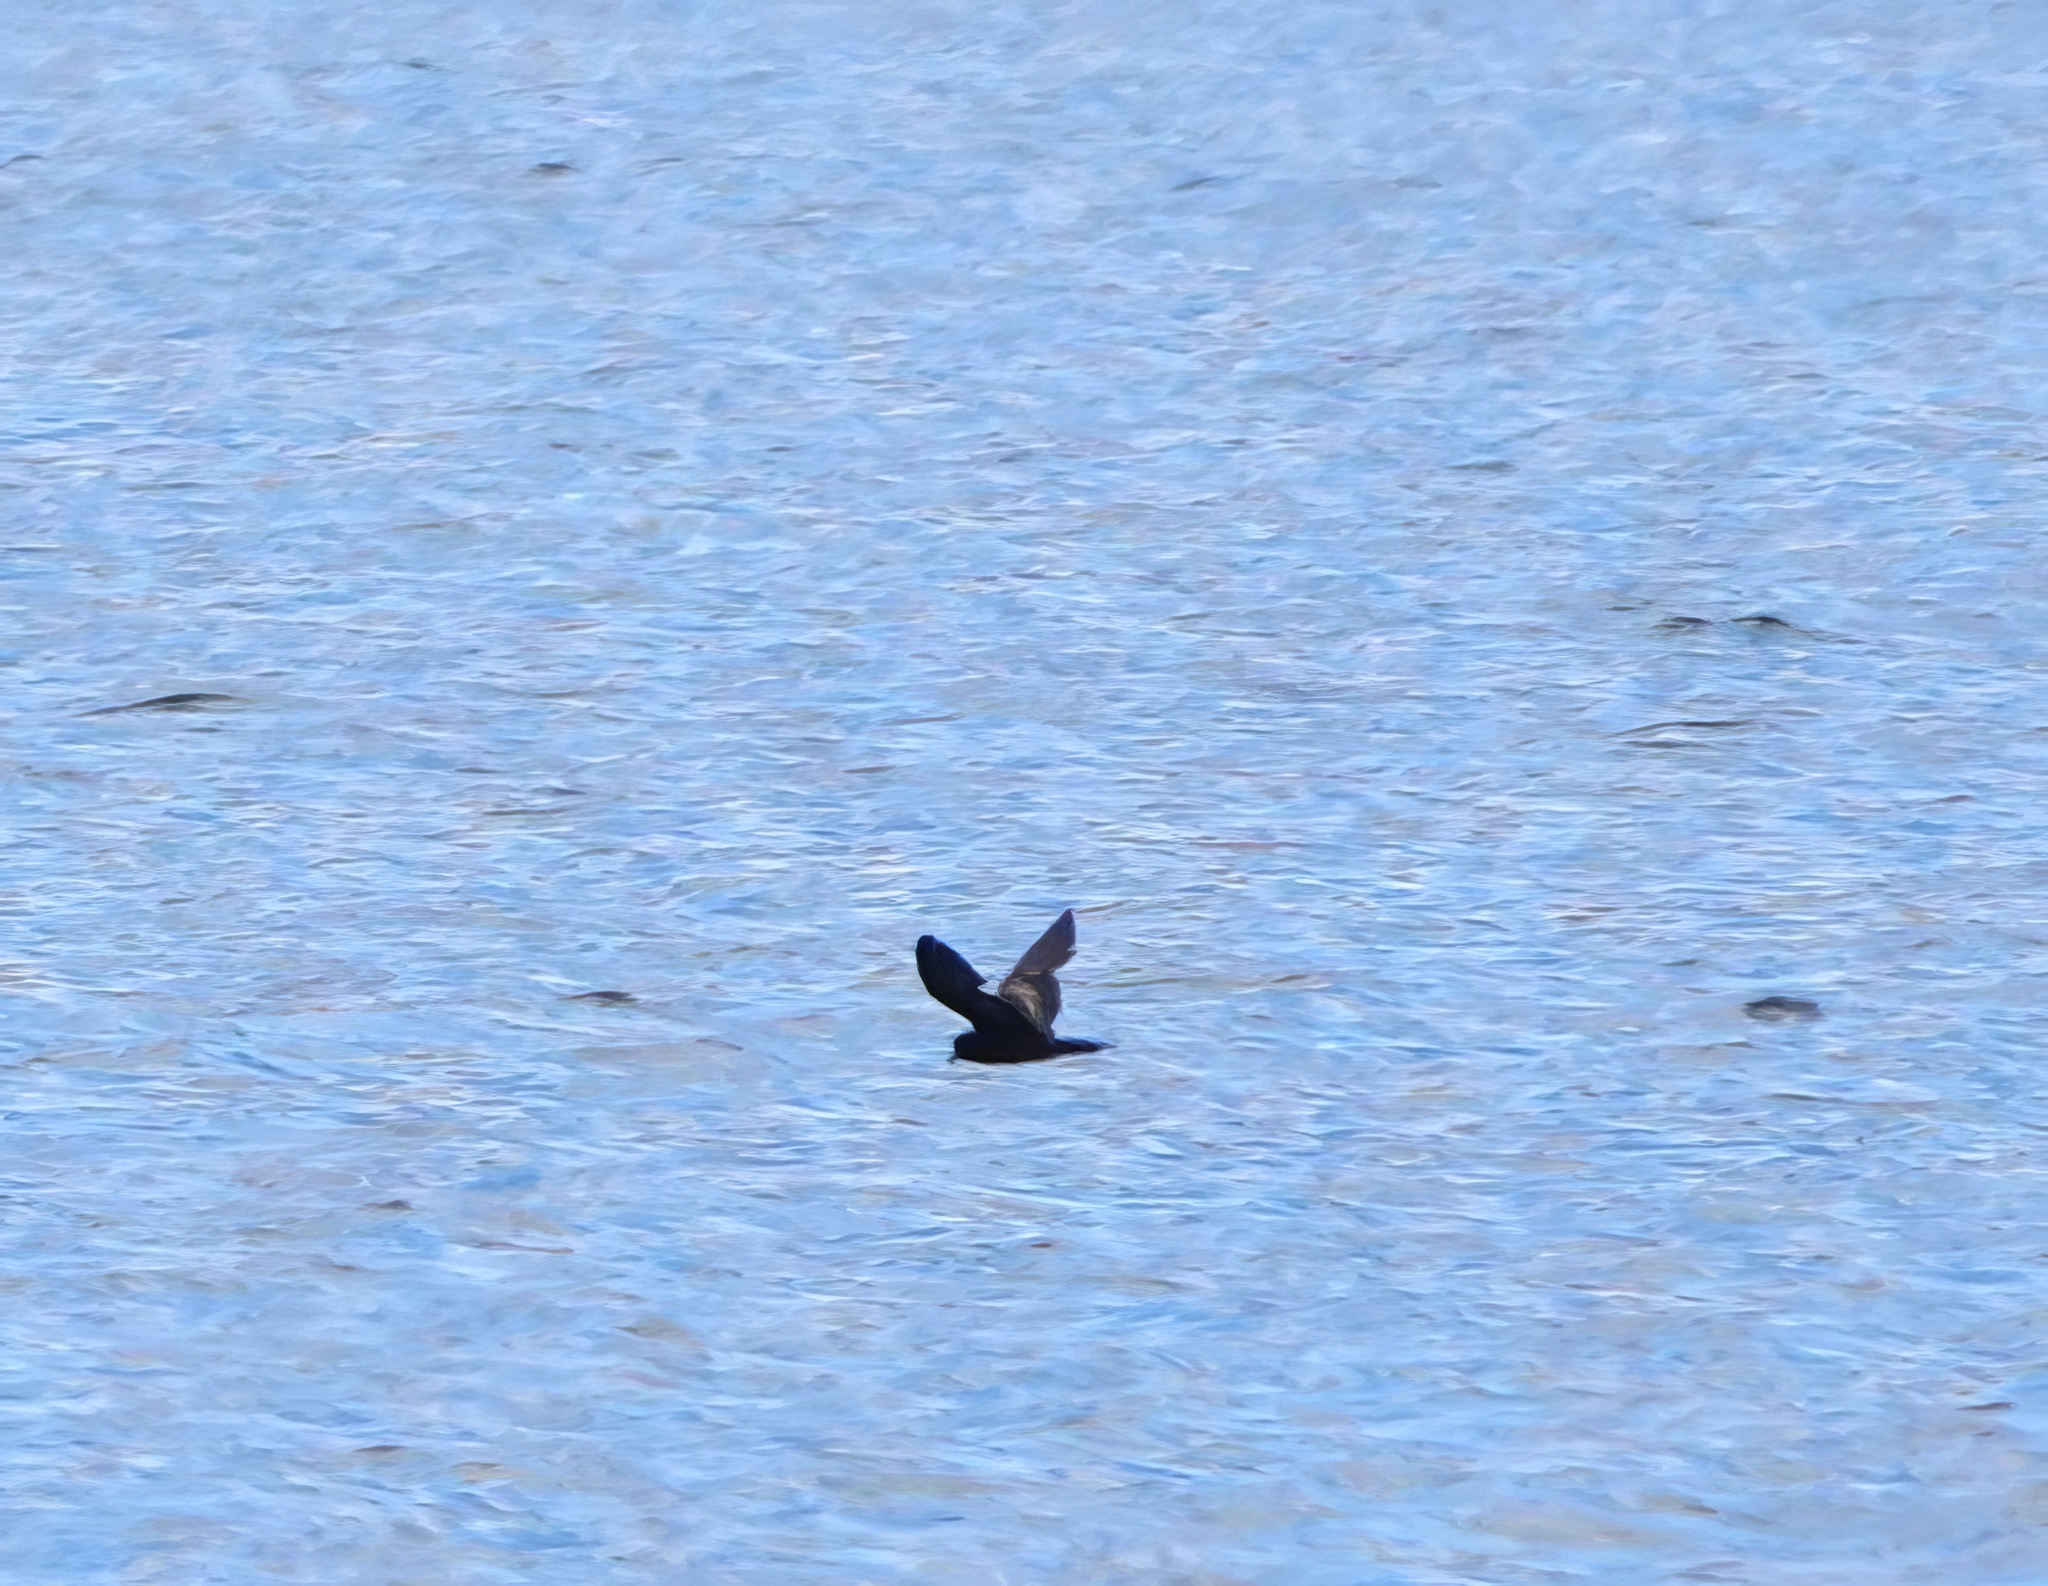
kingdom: Animalia
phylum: Chordata
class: Aves
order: Procellariiformes
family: Hydrobatidae
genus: Oceanodroma
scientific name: Oceanodroma microsoma
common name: Least storm-petrel
